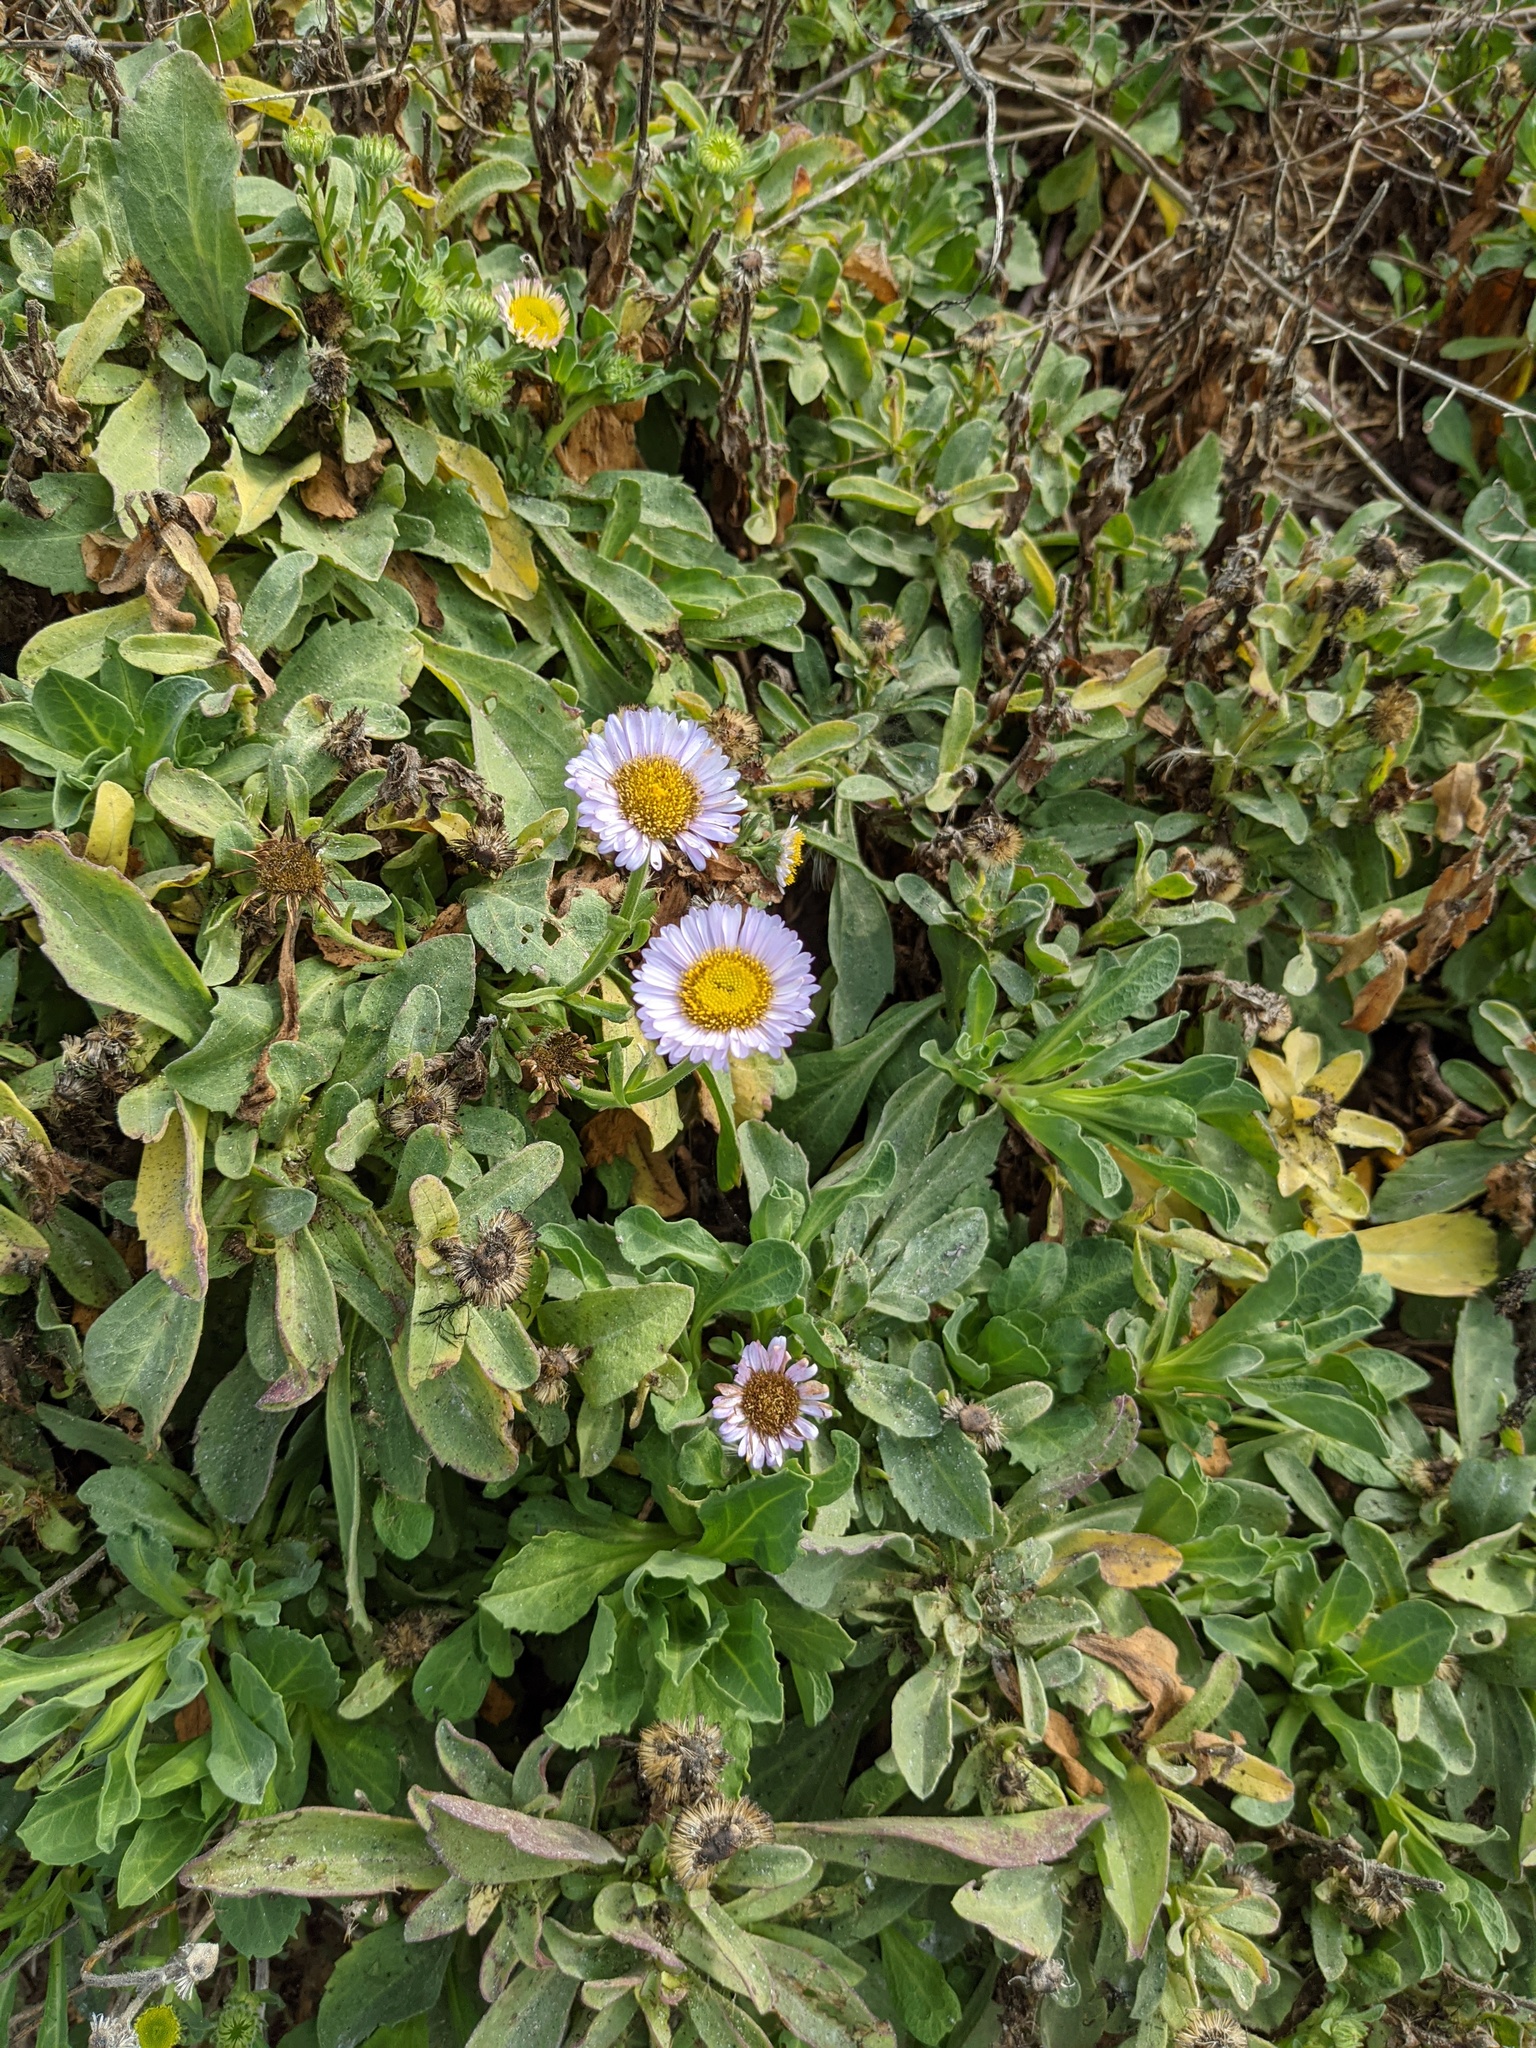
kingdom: Plantae
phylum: Tracheophyta
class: Magnoliopsida
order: Asterales
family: Asteraceae
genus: Erigeron
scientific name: Erigeron glaucus
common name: Seaside daisy
